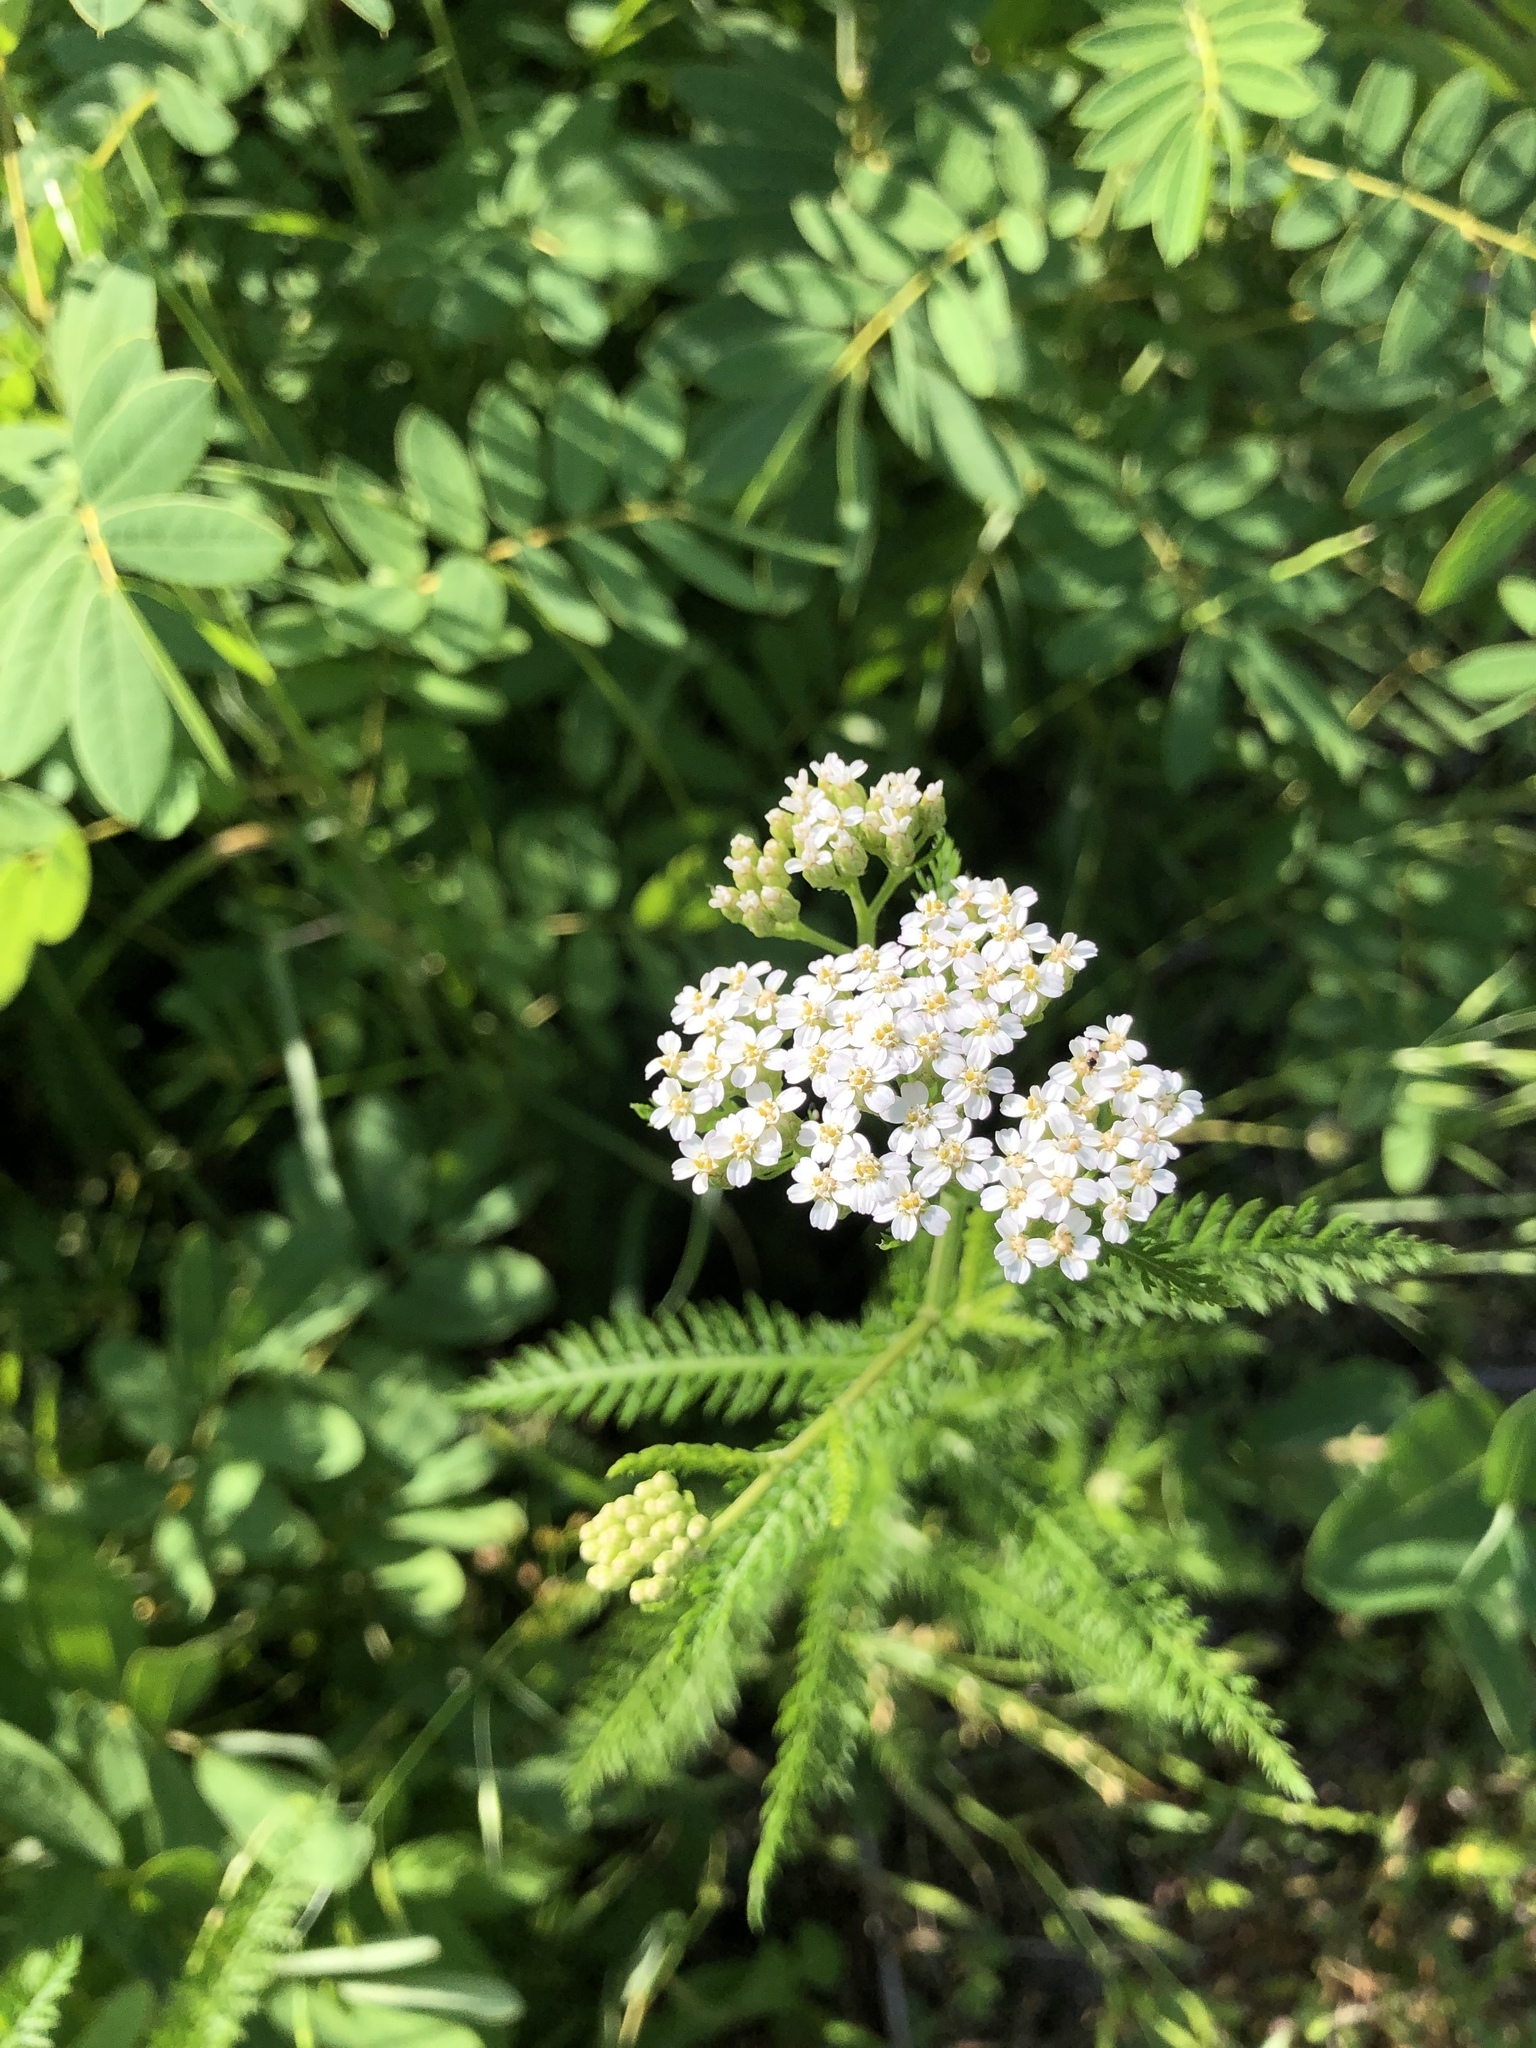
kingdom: Plantae
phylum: Tracheophyta
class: Magnoliopsida
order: Asterales
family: Asteraceae
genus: Achillea
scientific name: Achillea millefolium
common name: Yarrow
